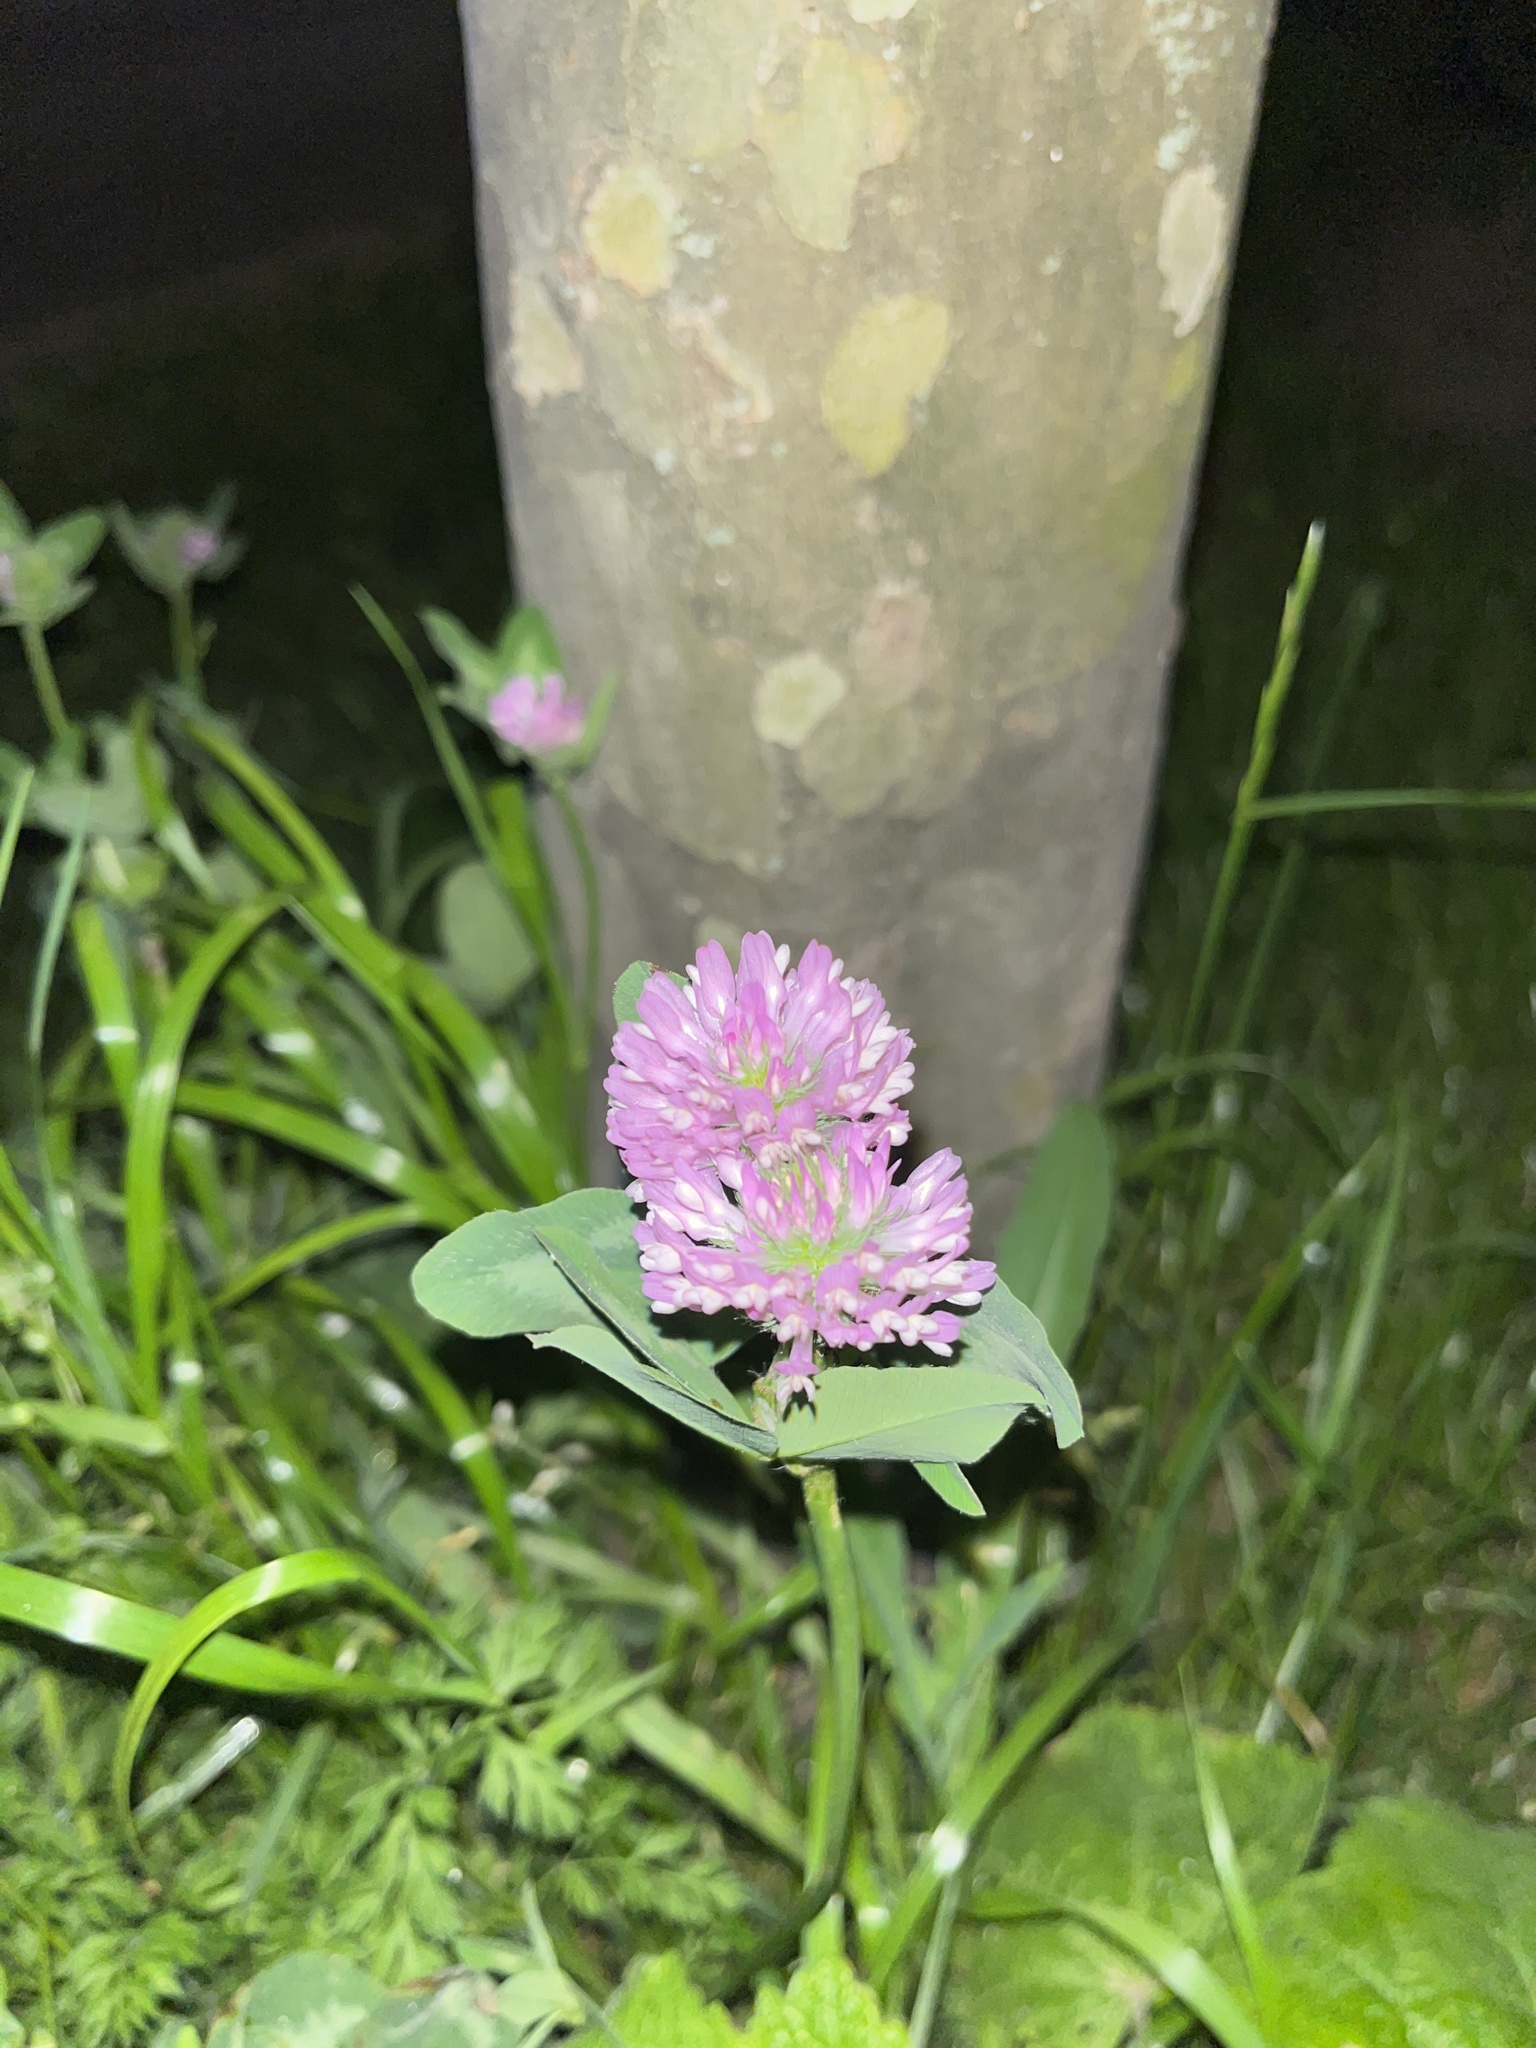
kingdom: Plantae
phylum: Tracheophyta
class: Magnoliopsida
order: Fabales
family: Fabaceae
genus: Trifolium
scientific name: Trifolium pratense
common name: Red clover
